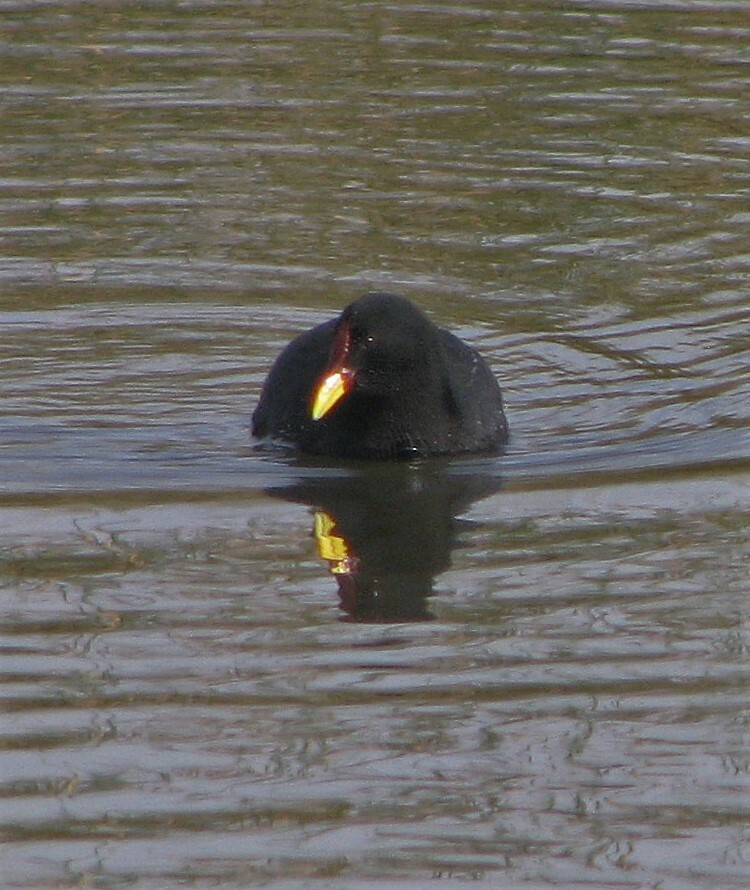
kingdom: Animalia
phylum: Chordata
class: Aves
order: Gruiformes
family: Rallidae
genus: Fulica
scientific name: Fulica rufifrons
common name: Red-fronted coot
